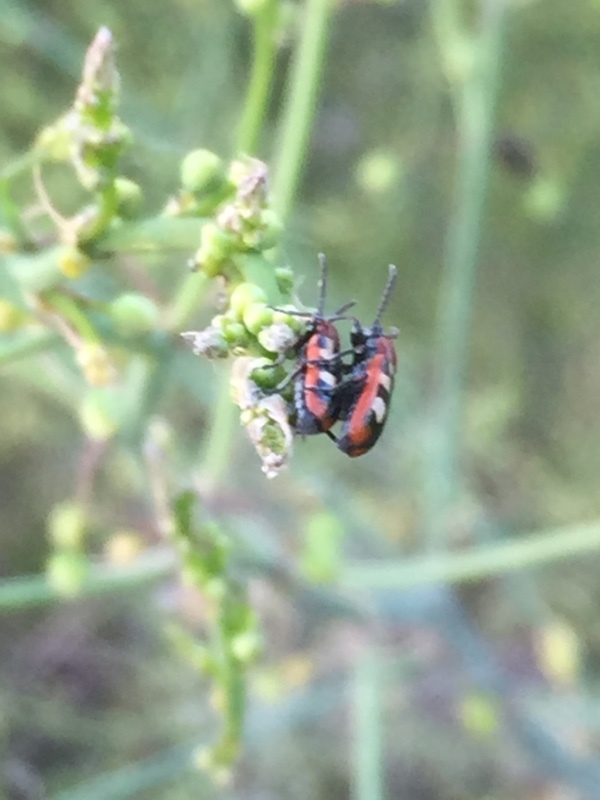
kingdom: Animalia
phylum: Arthropoda
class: Insecta
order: Coleoptera
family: Chrysomelidae
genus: Crioceris
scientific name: Crioceris asparagi
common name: Asparagus beetle
